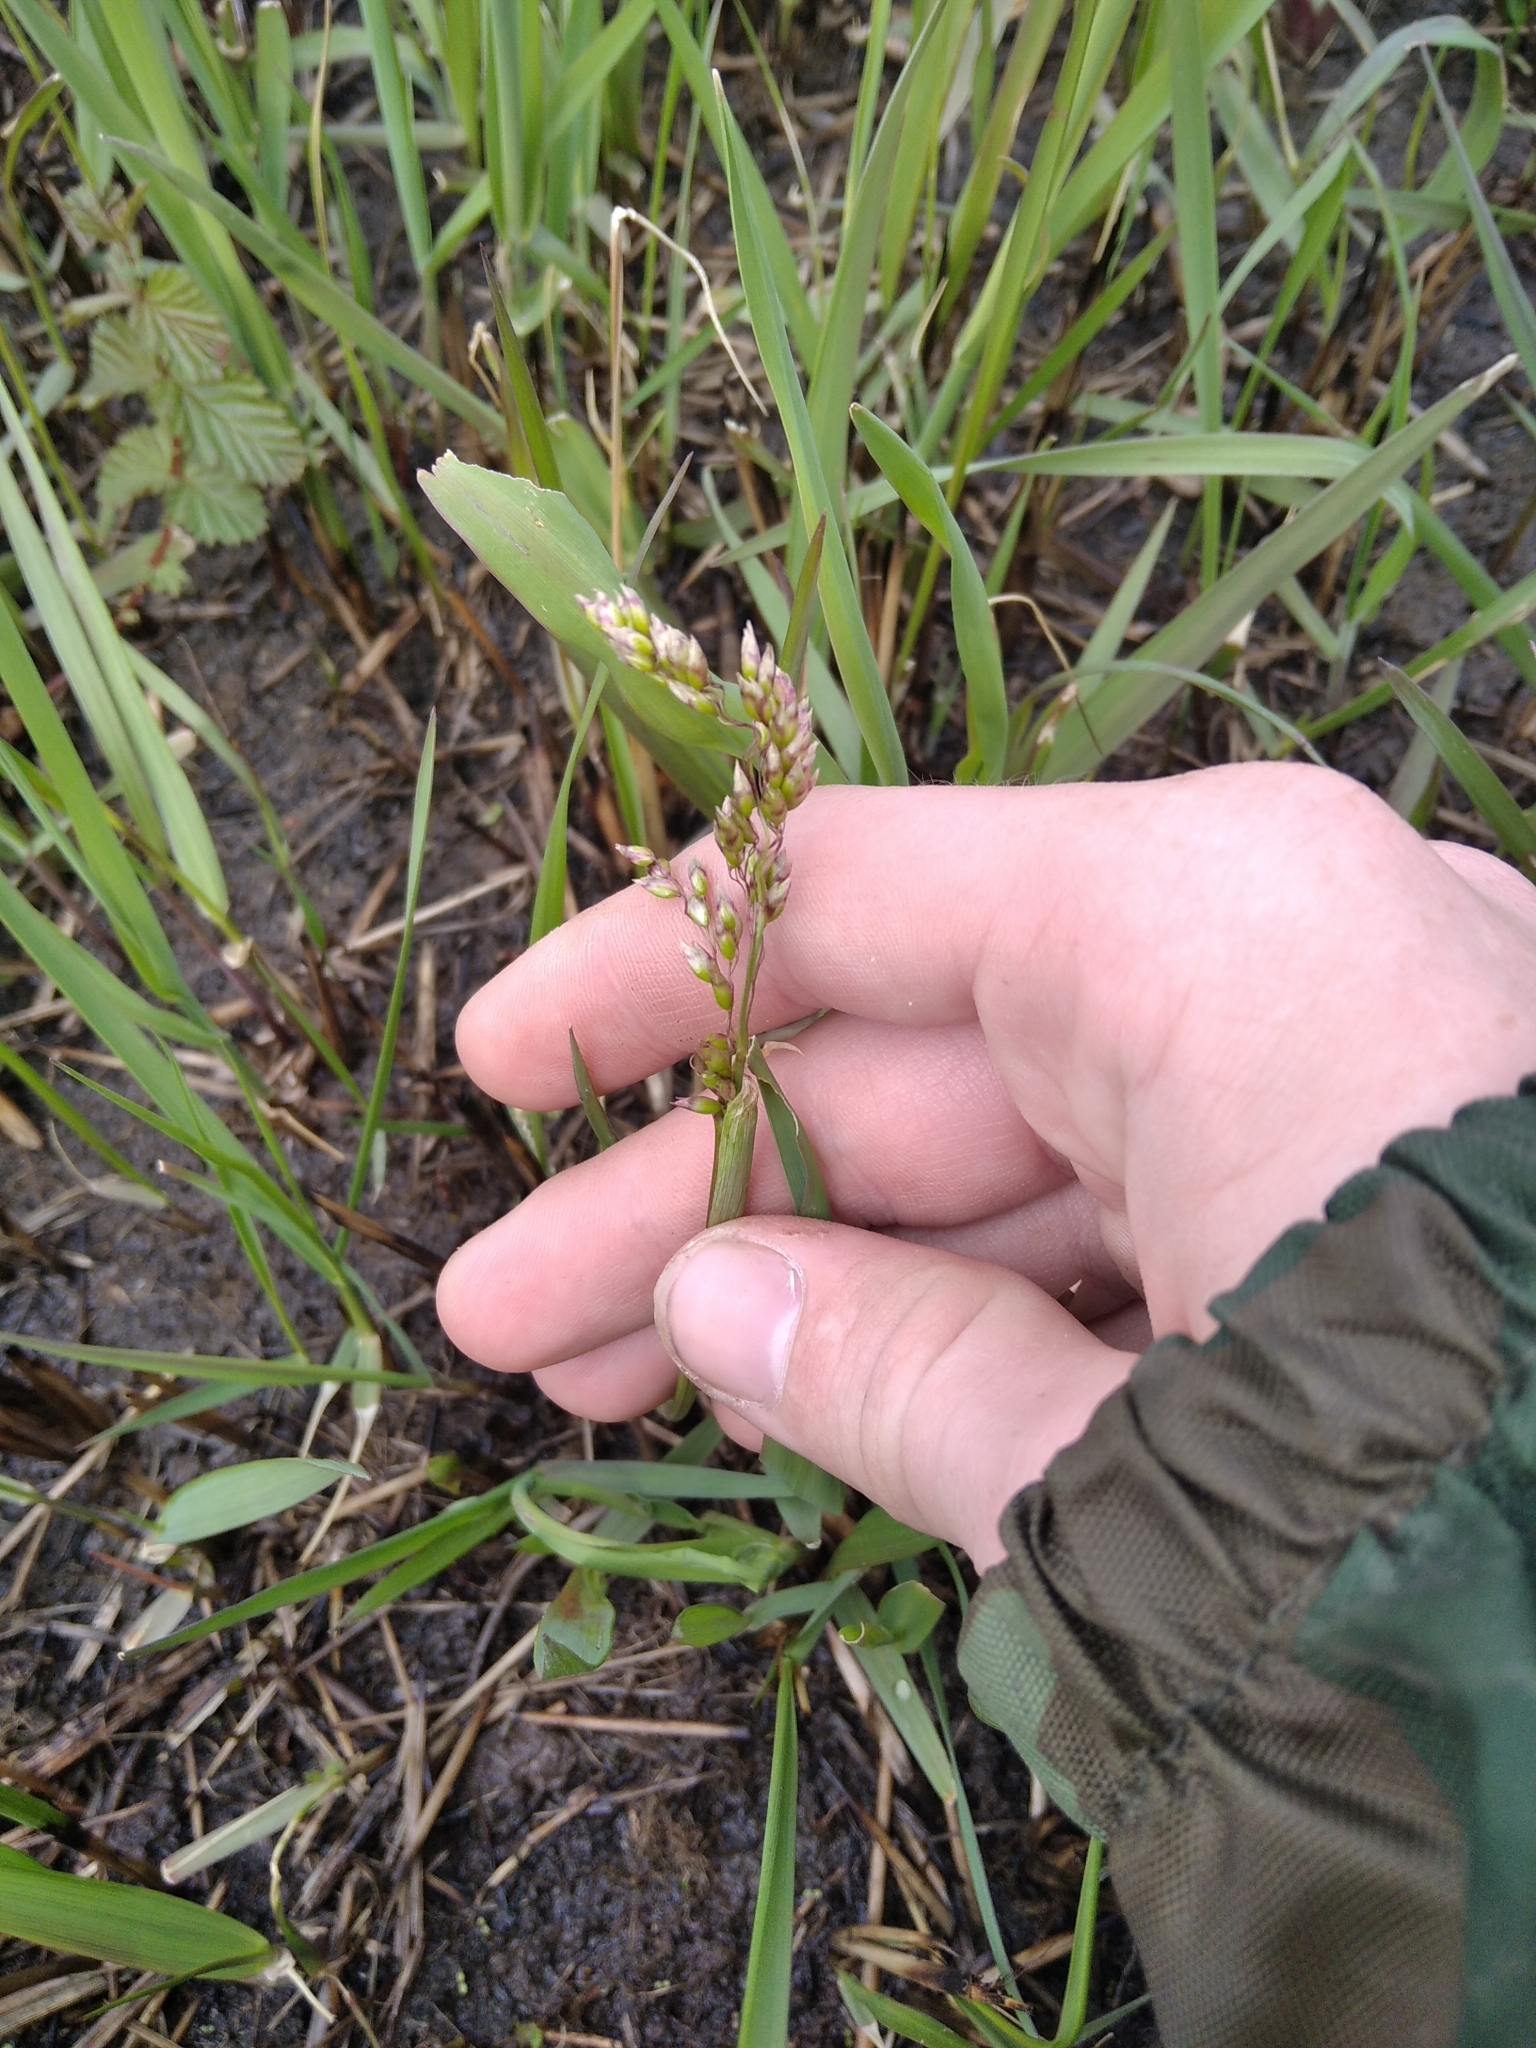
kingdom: Plantae
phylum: Tracheophyta
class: Liliopsida
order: Poales
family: Poaceae
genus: Anthoxanthum
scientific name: Anthoxanthum nitens
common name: Holy grass
